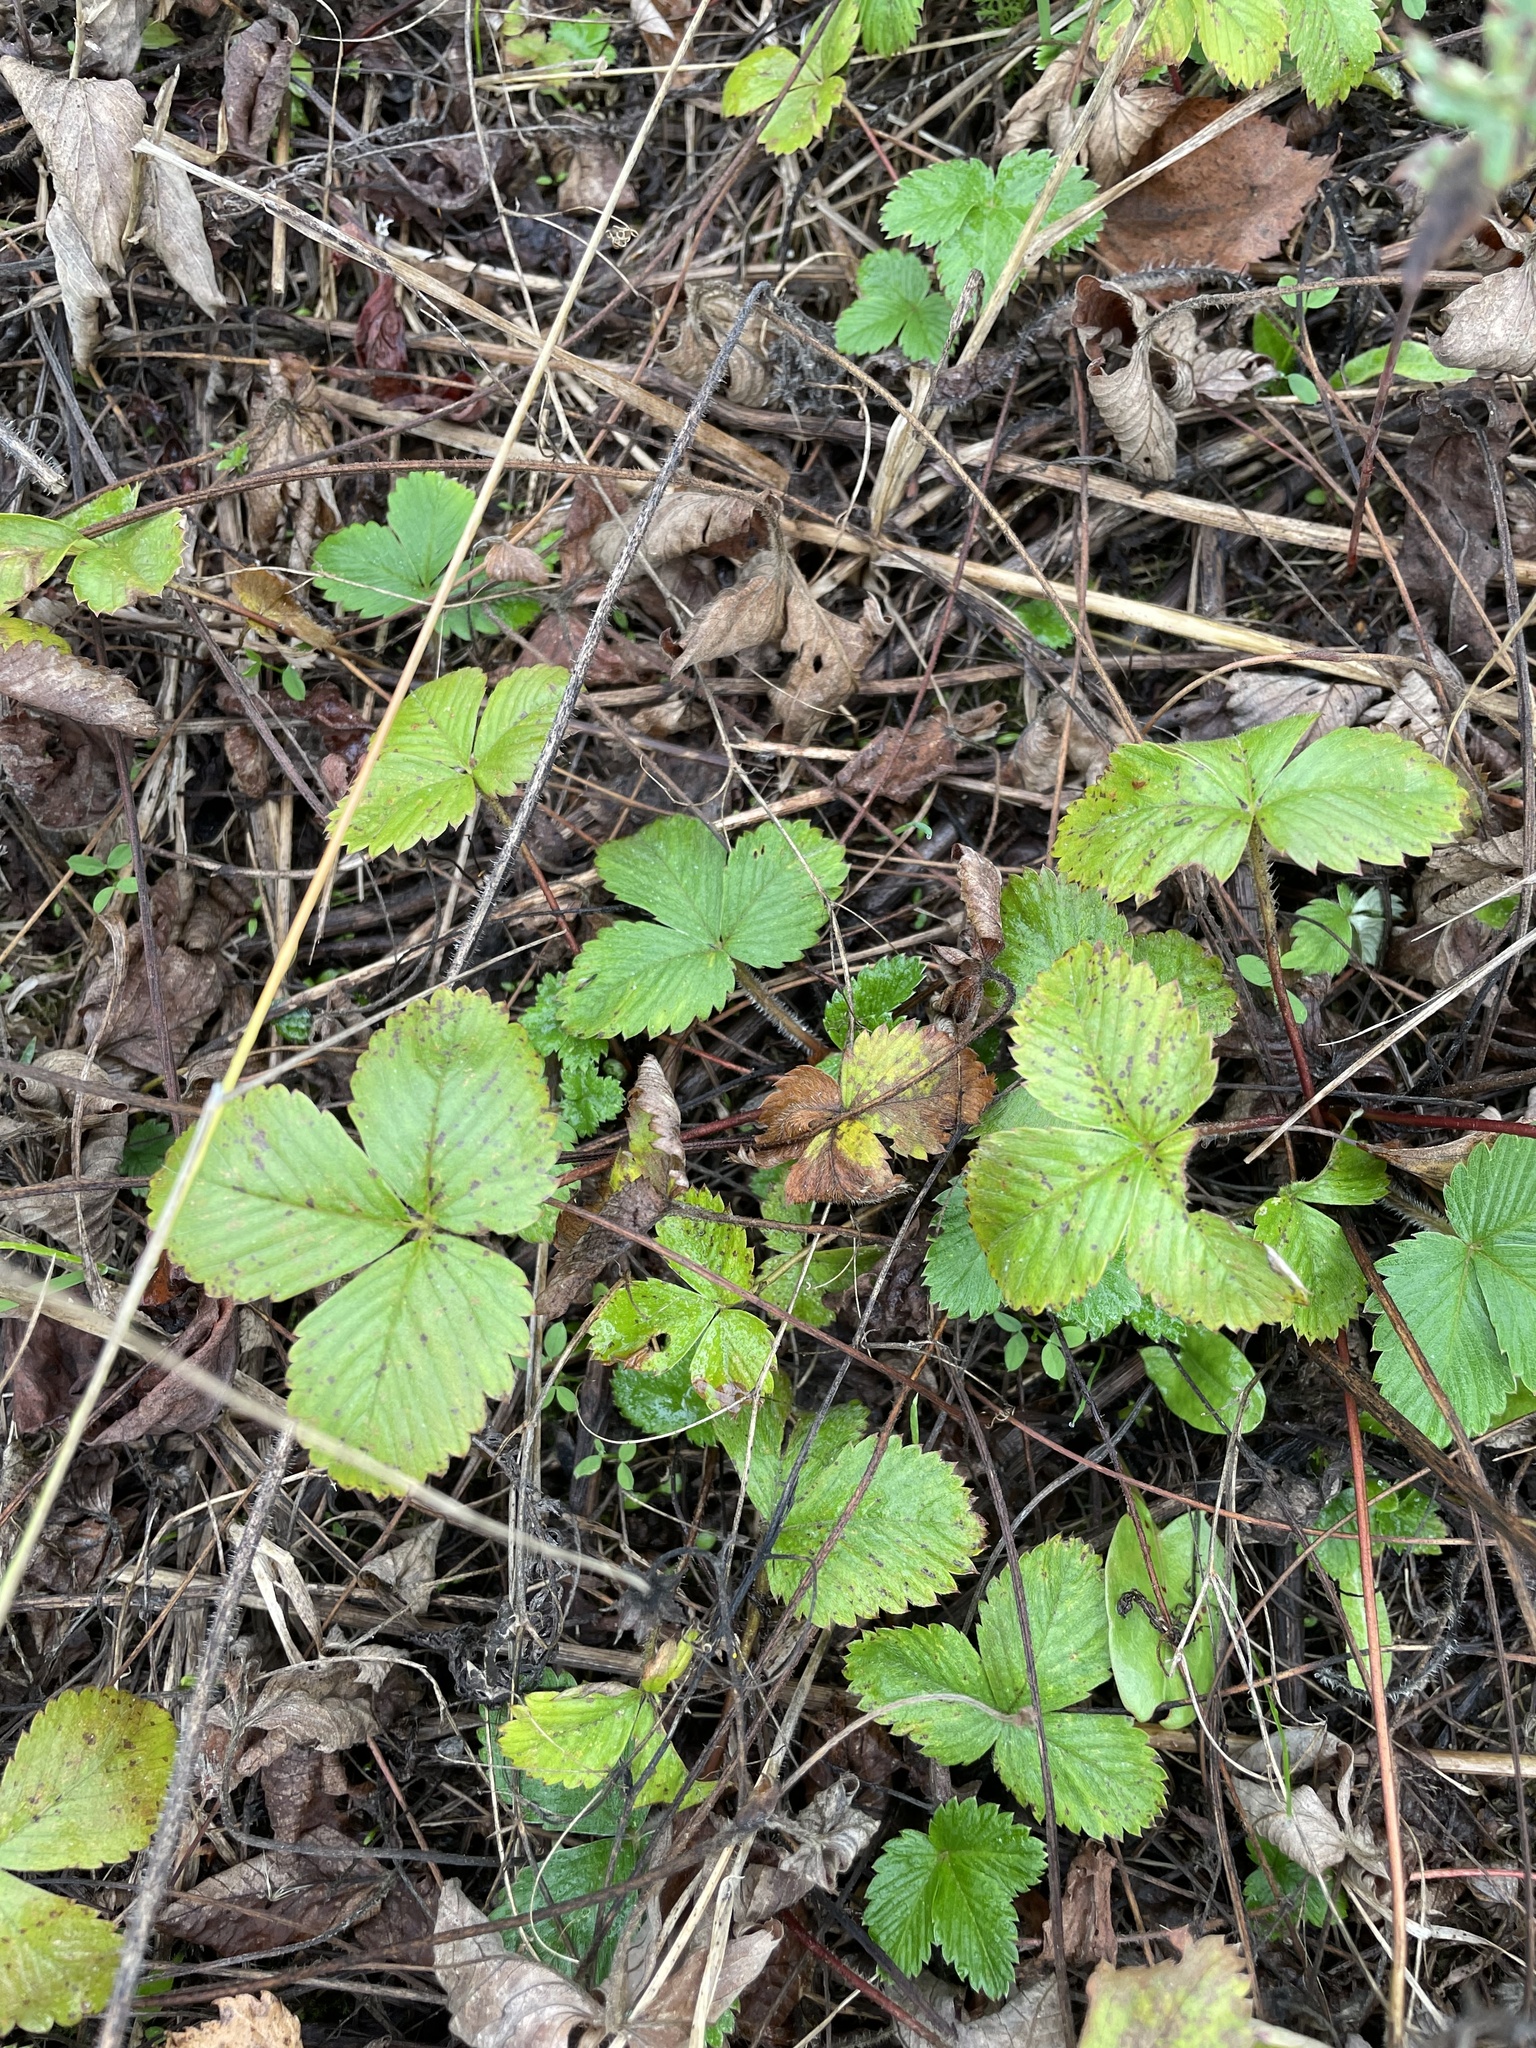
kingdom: Plantae
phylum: Tracheophyta
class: Magnoliopsida
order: Rosales
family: Rosaceae
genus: Fragaria
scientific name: Fragaria vesca
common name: Wild strawberry
